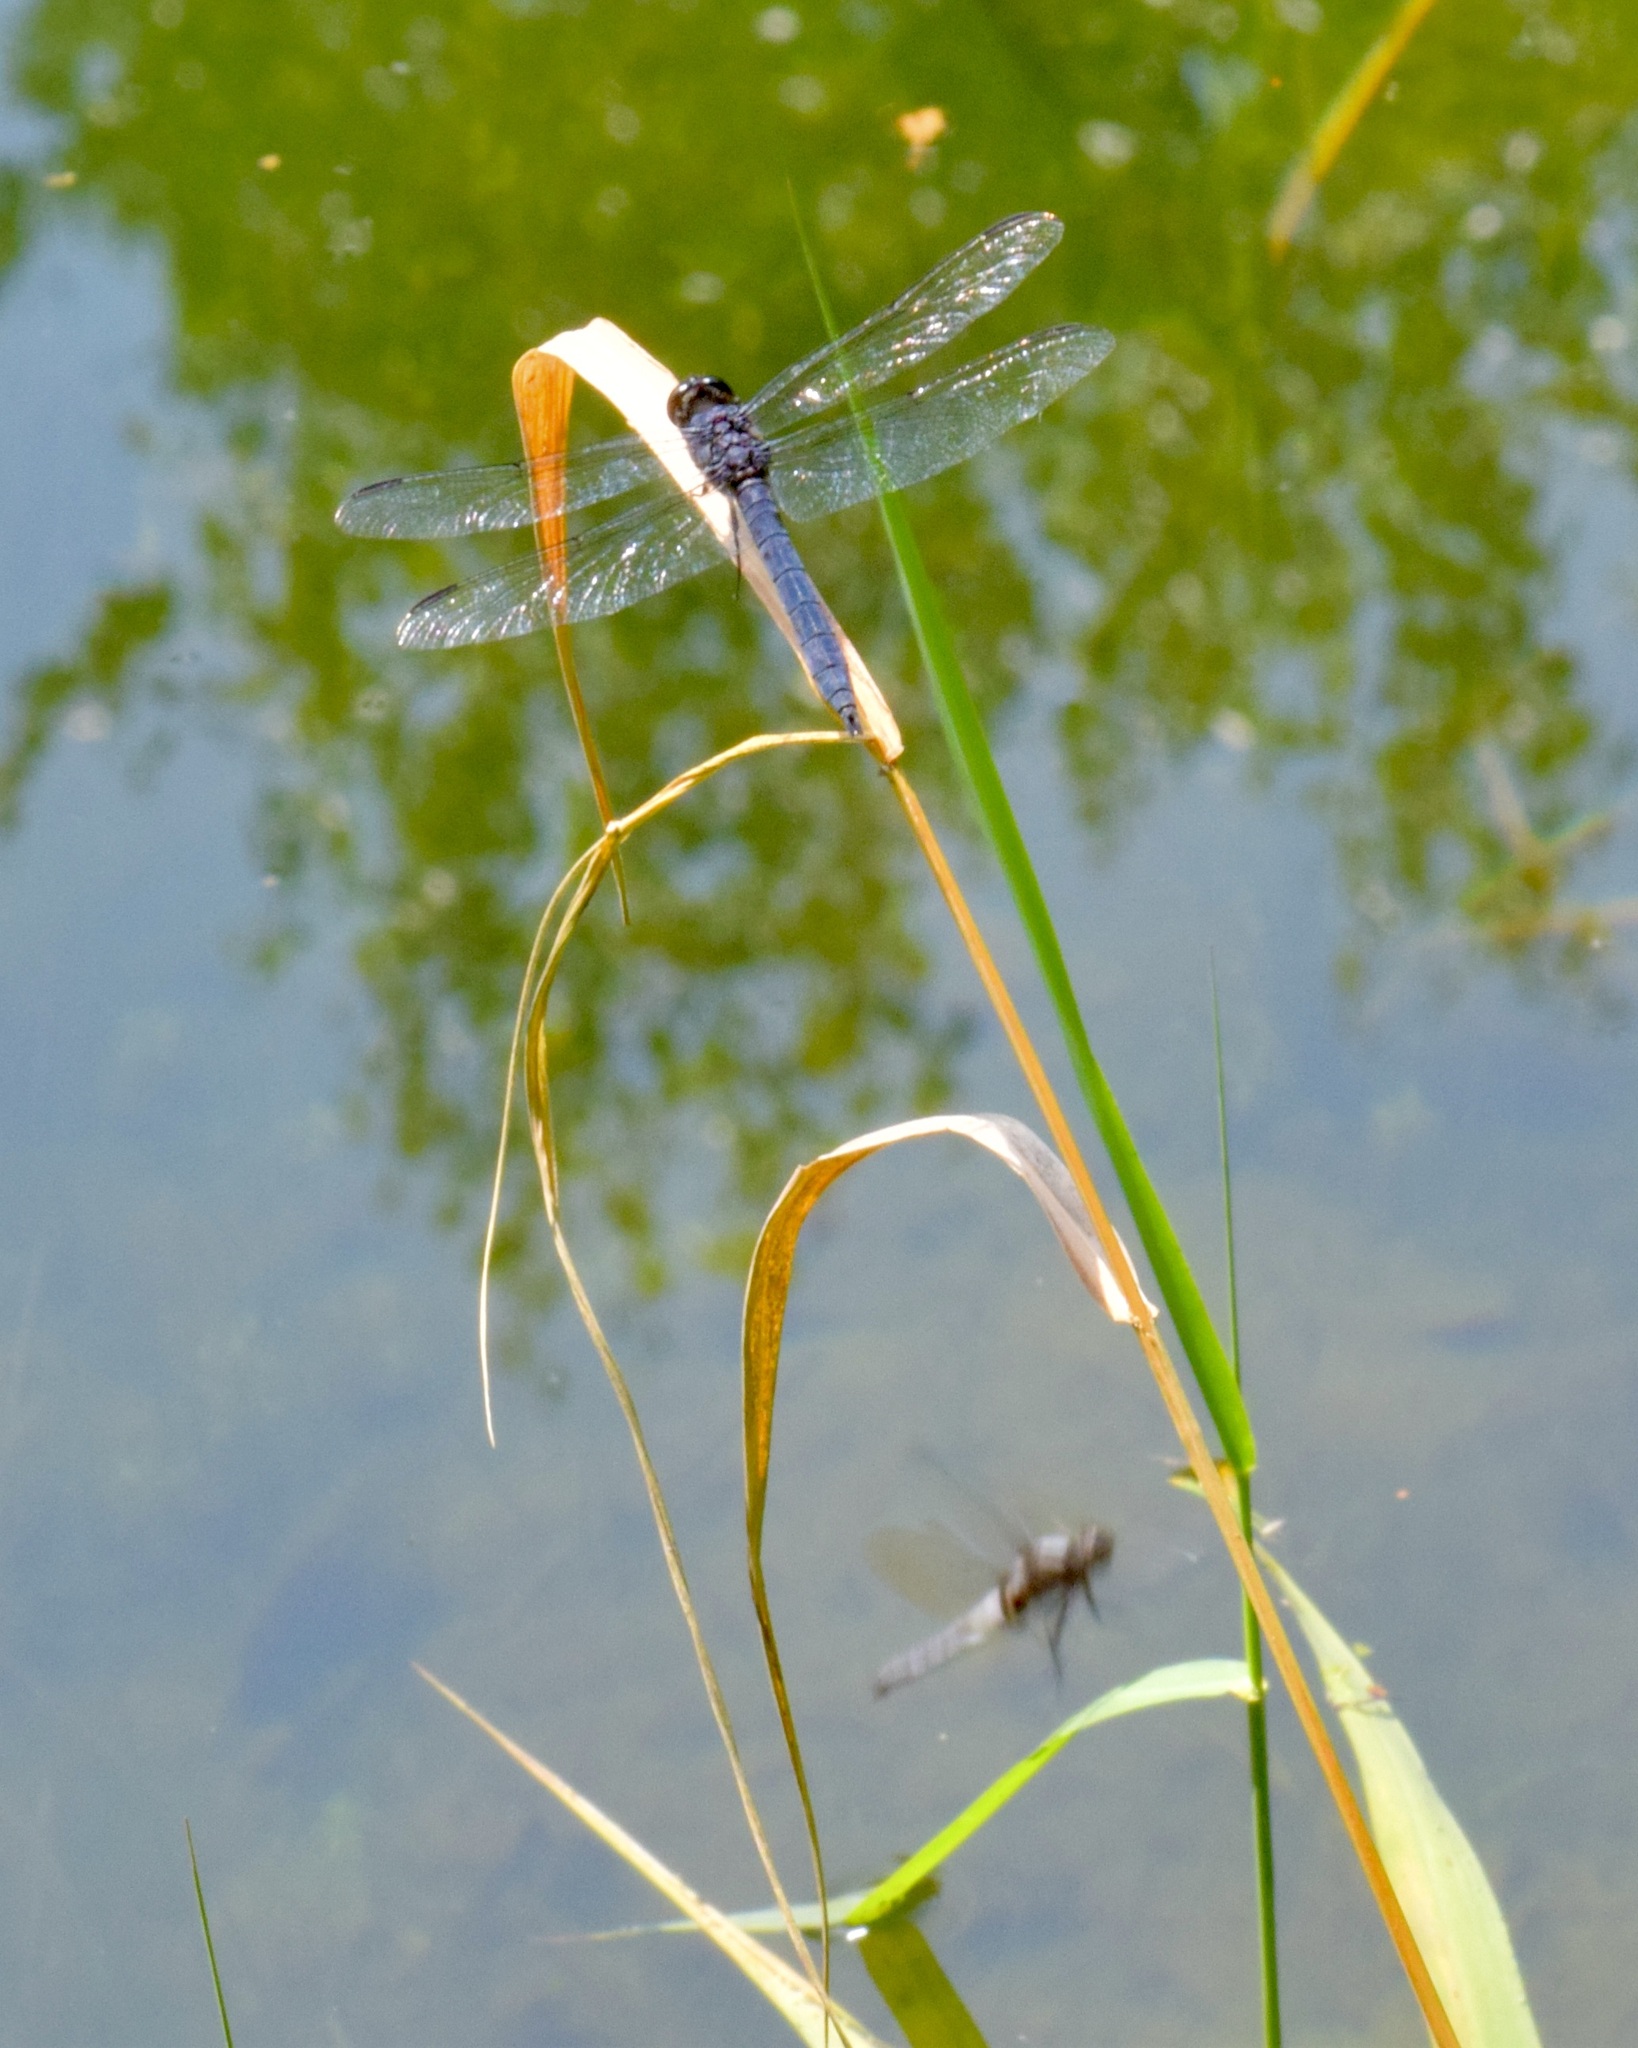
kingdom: Animalia
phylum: Arthropoda
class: Insecta
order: Odonata
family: Libellulidae
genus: Libellula
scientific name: Libellula incesta
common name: Slaty skimmer
